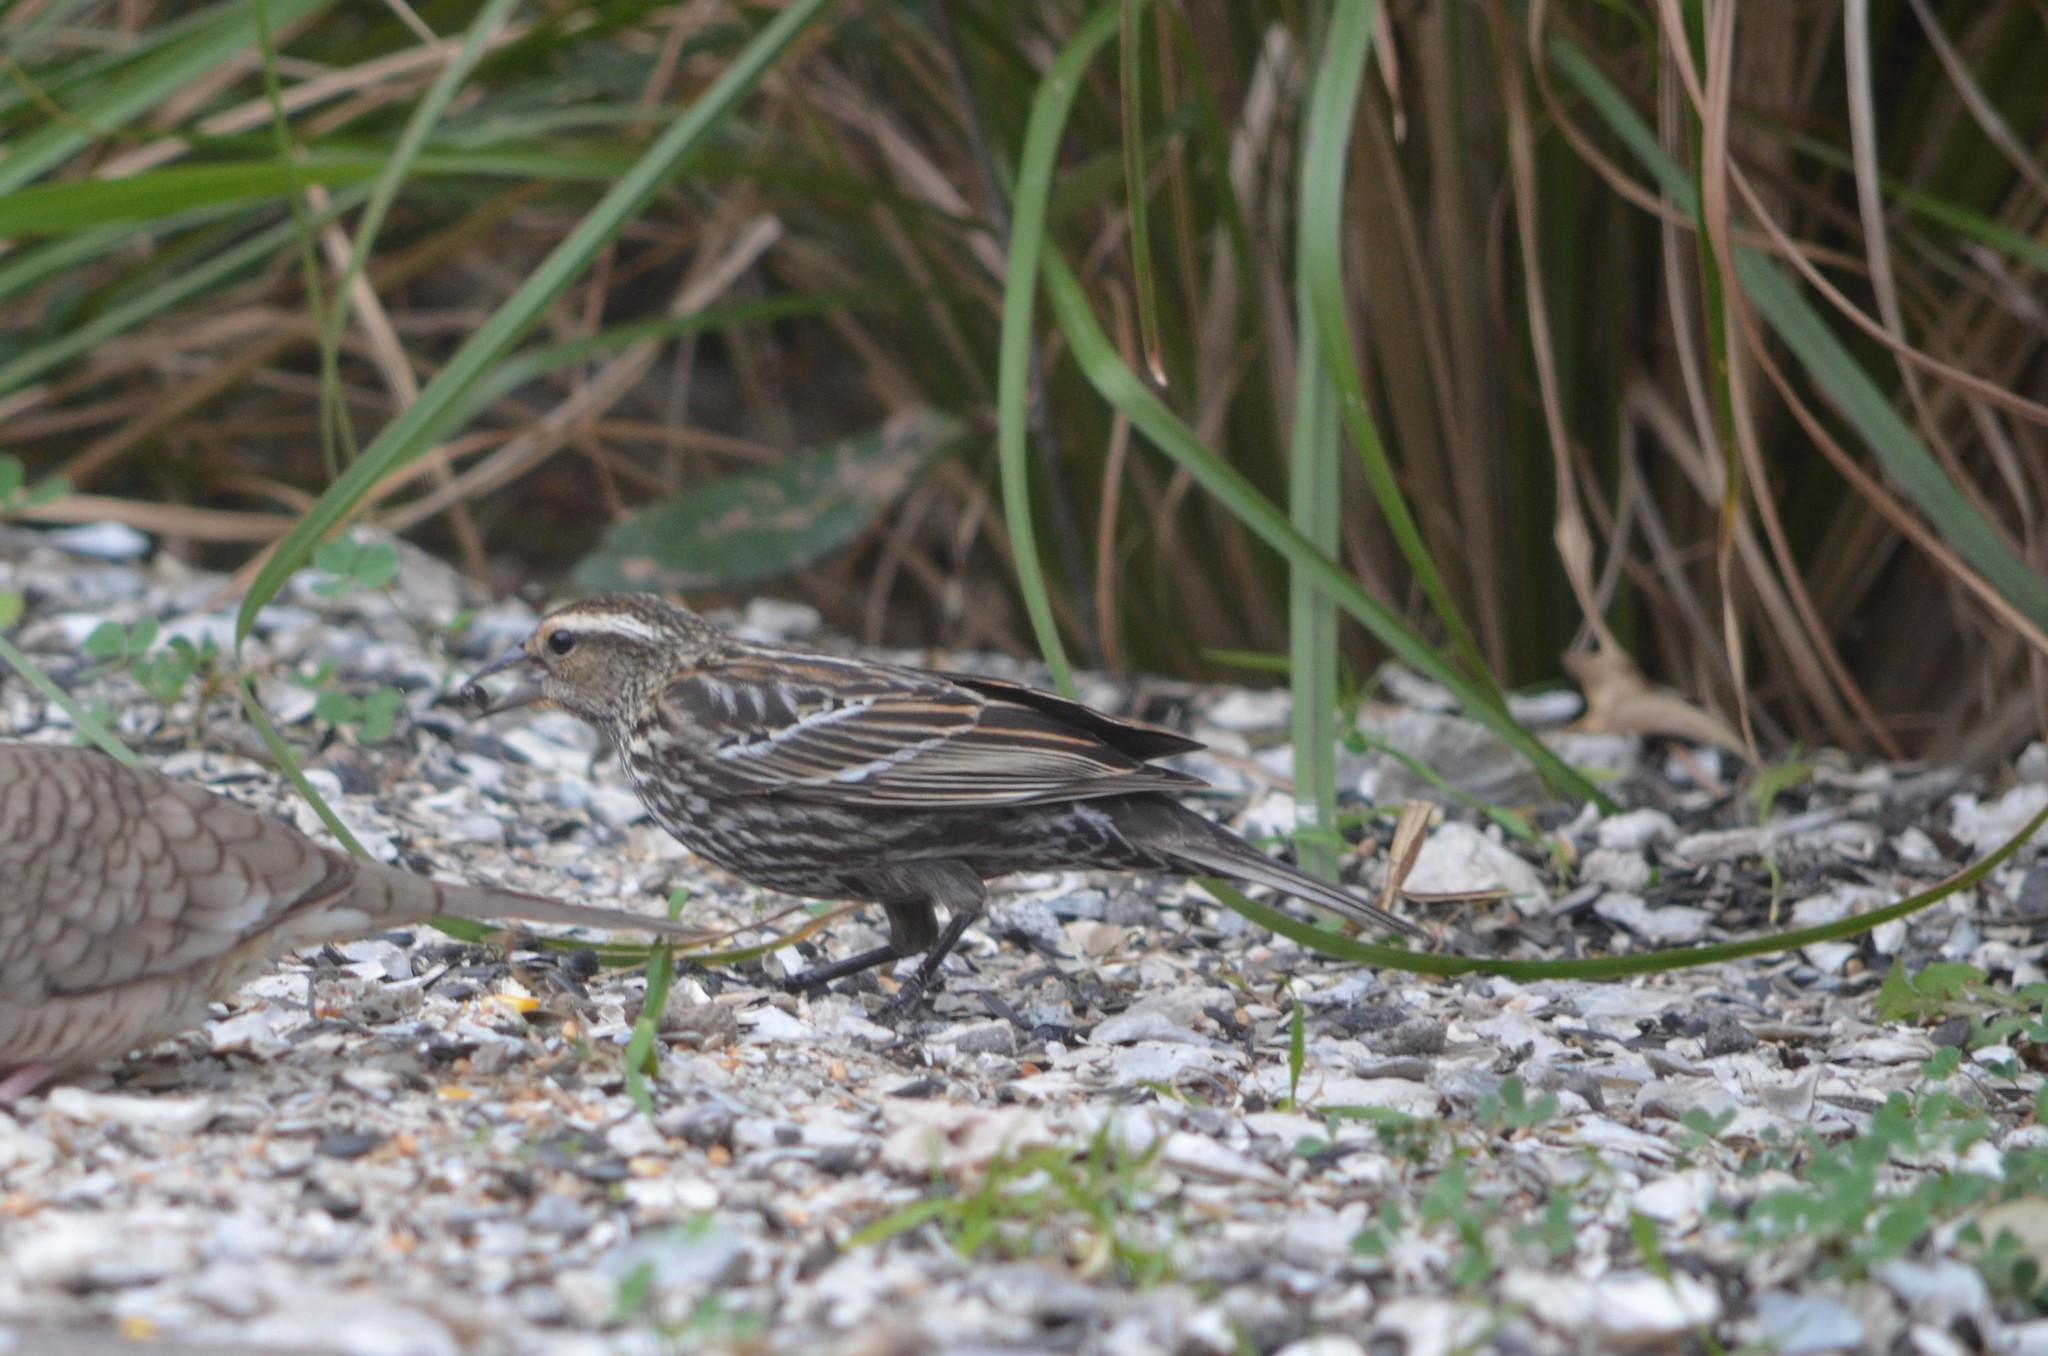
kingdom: Animalia
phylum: Chordata
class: Aves
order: Passeriformes
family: Icteridae
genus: Agelaius
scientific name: Agelaius phoeniceus
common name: Red-winged blackbird
